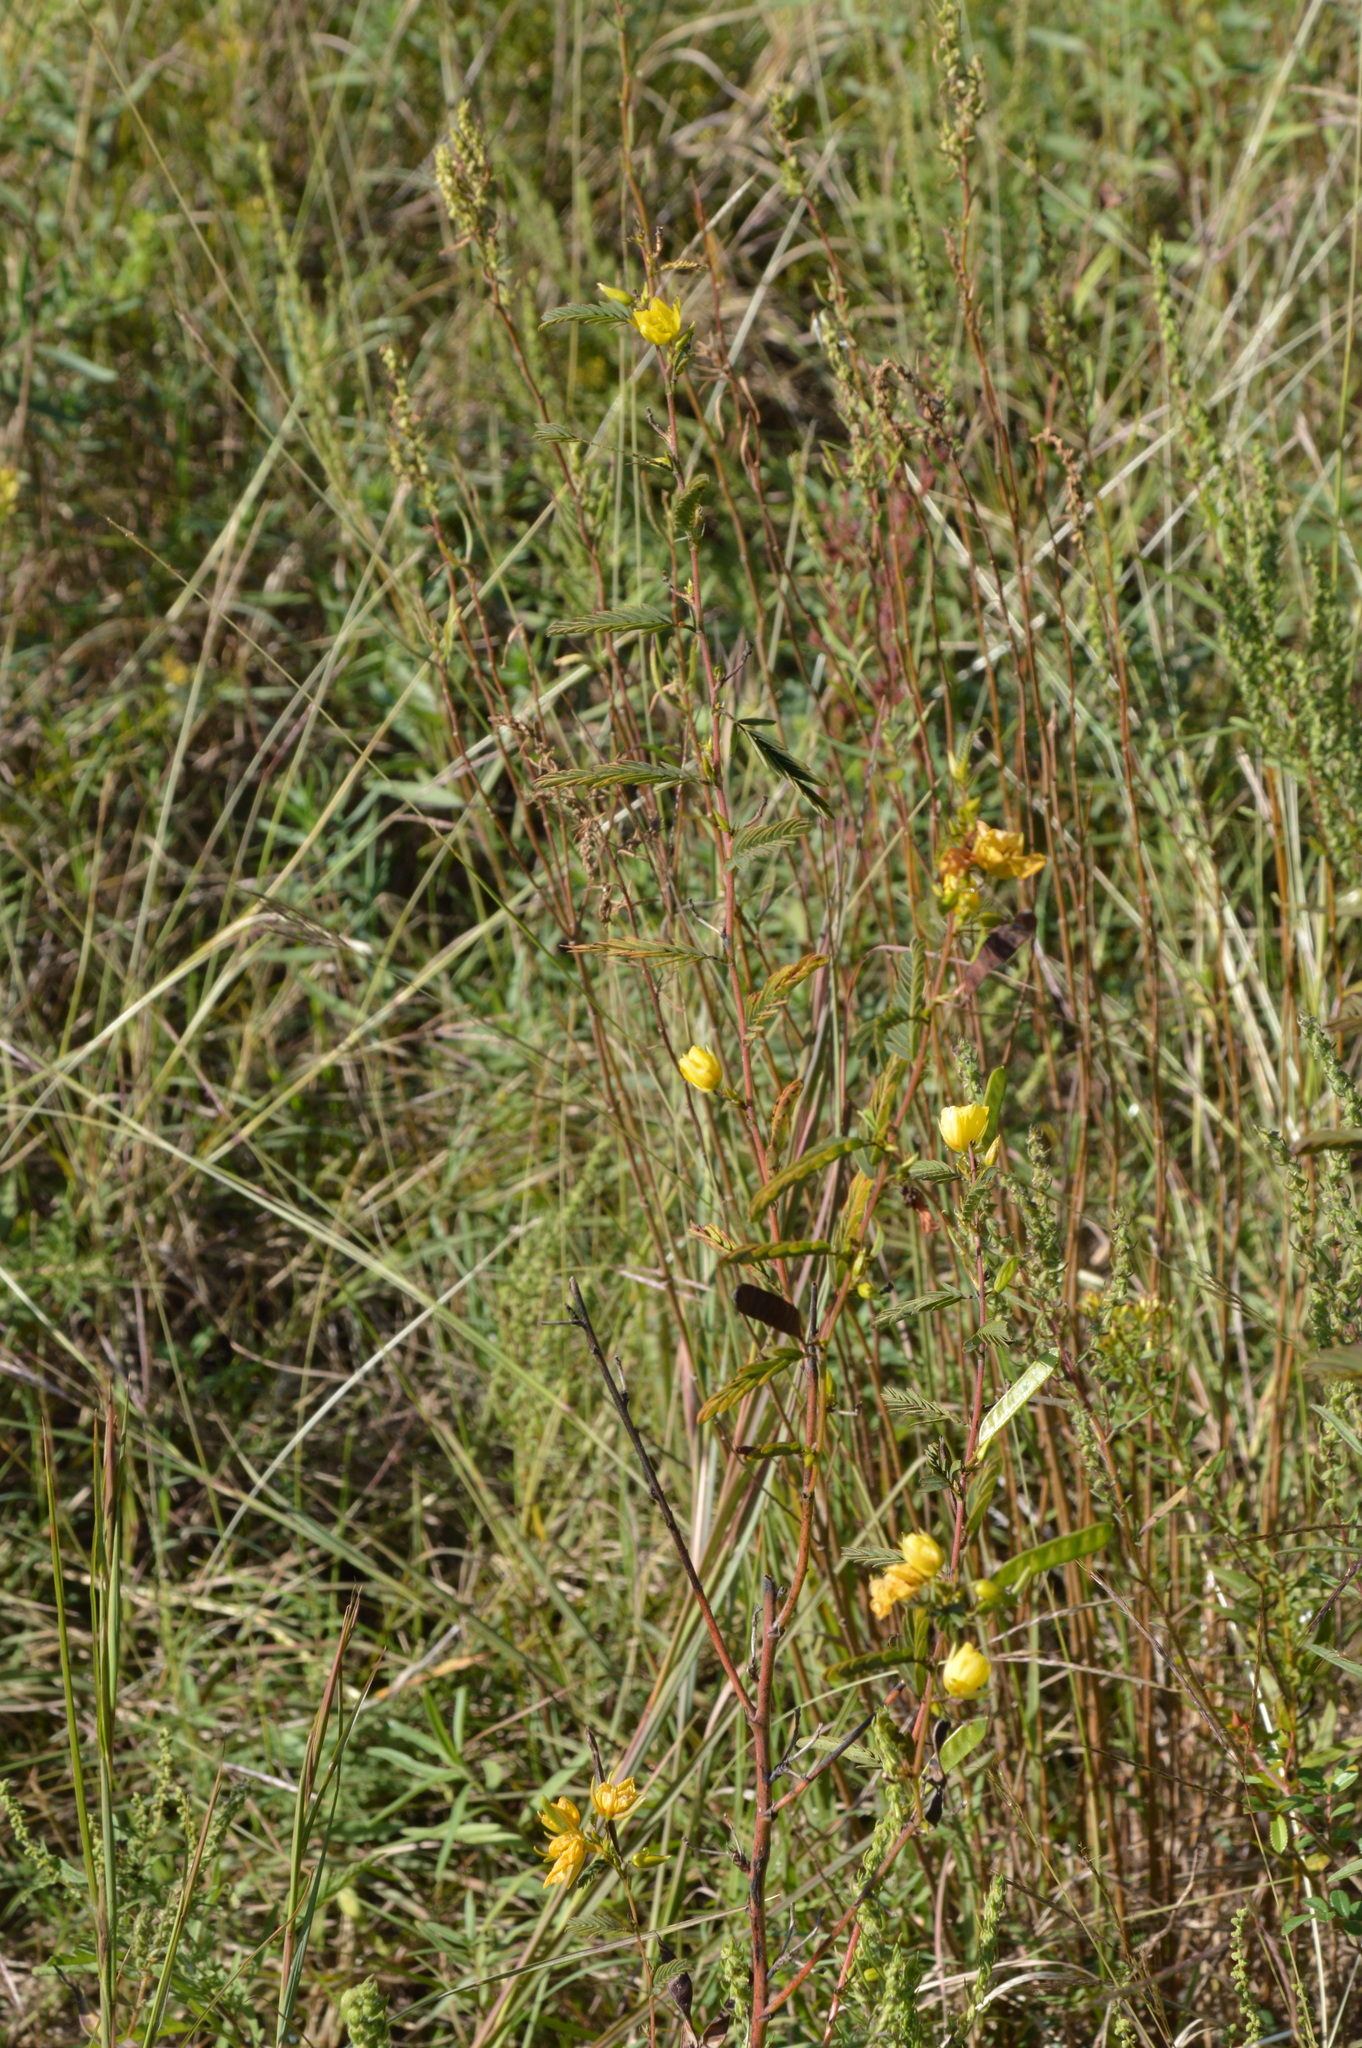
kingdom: Plantae
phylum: Tracheophyta
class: Magnoliopsida
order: Fabales
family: Fabaceae
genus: Chamaecrista
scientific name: Chamaecrista fasciculata
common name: Golden cassia
